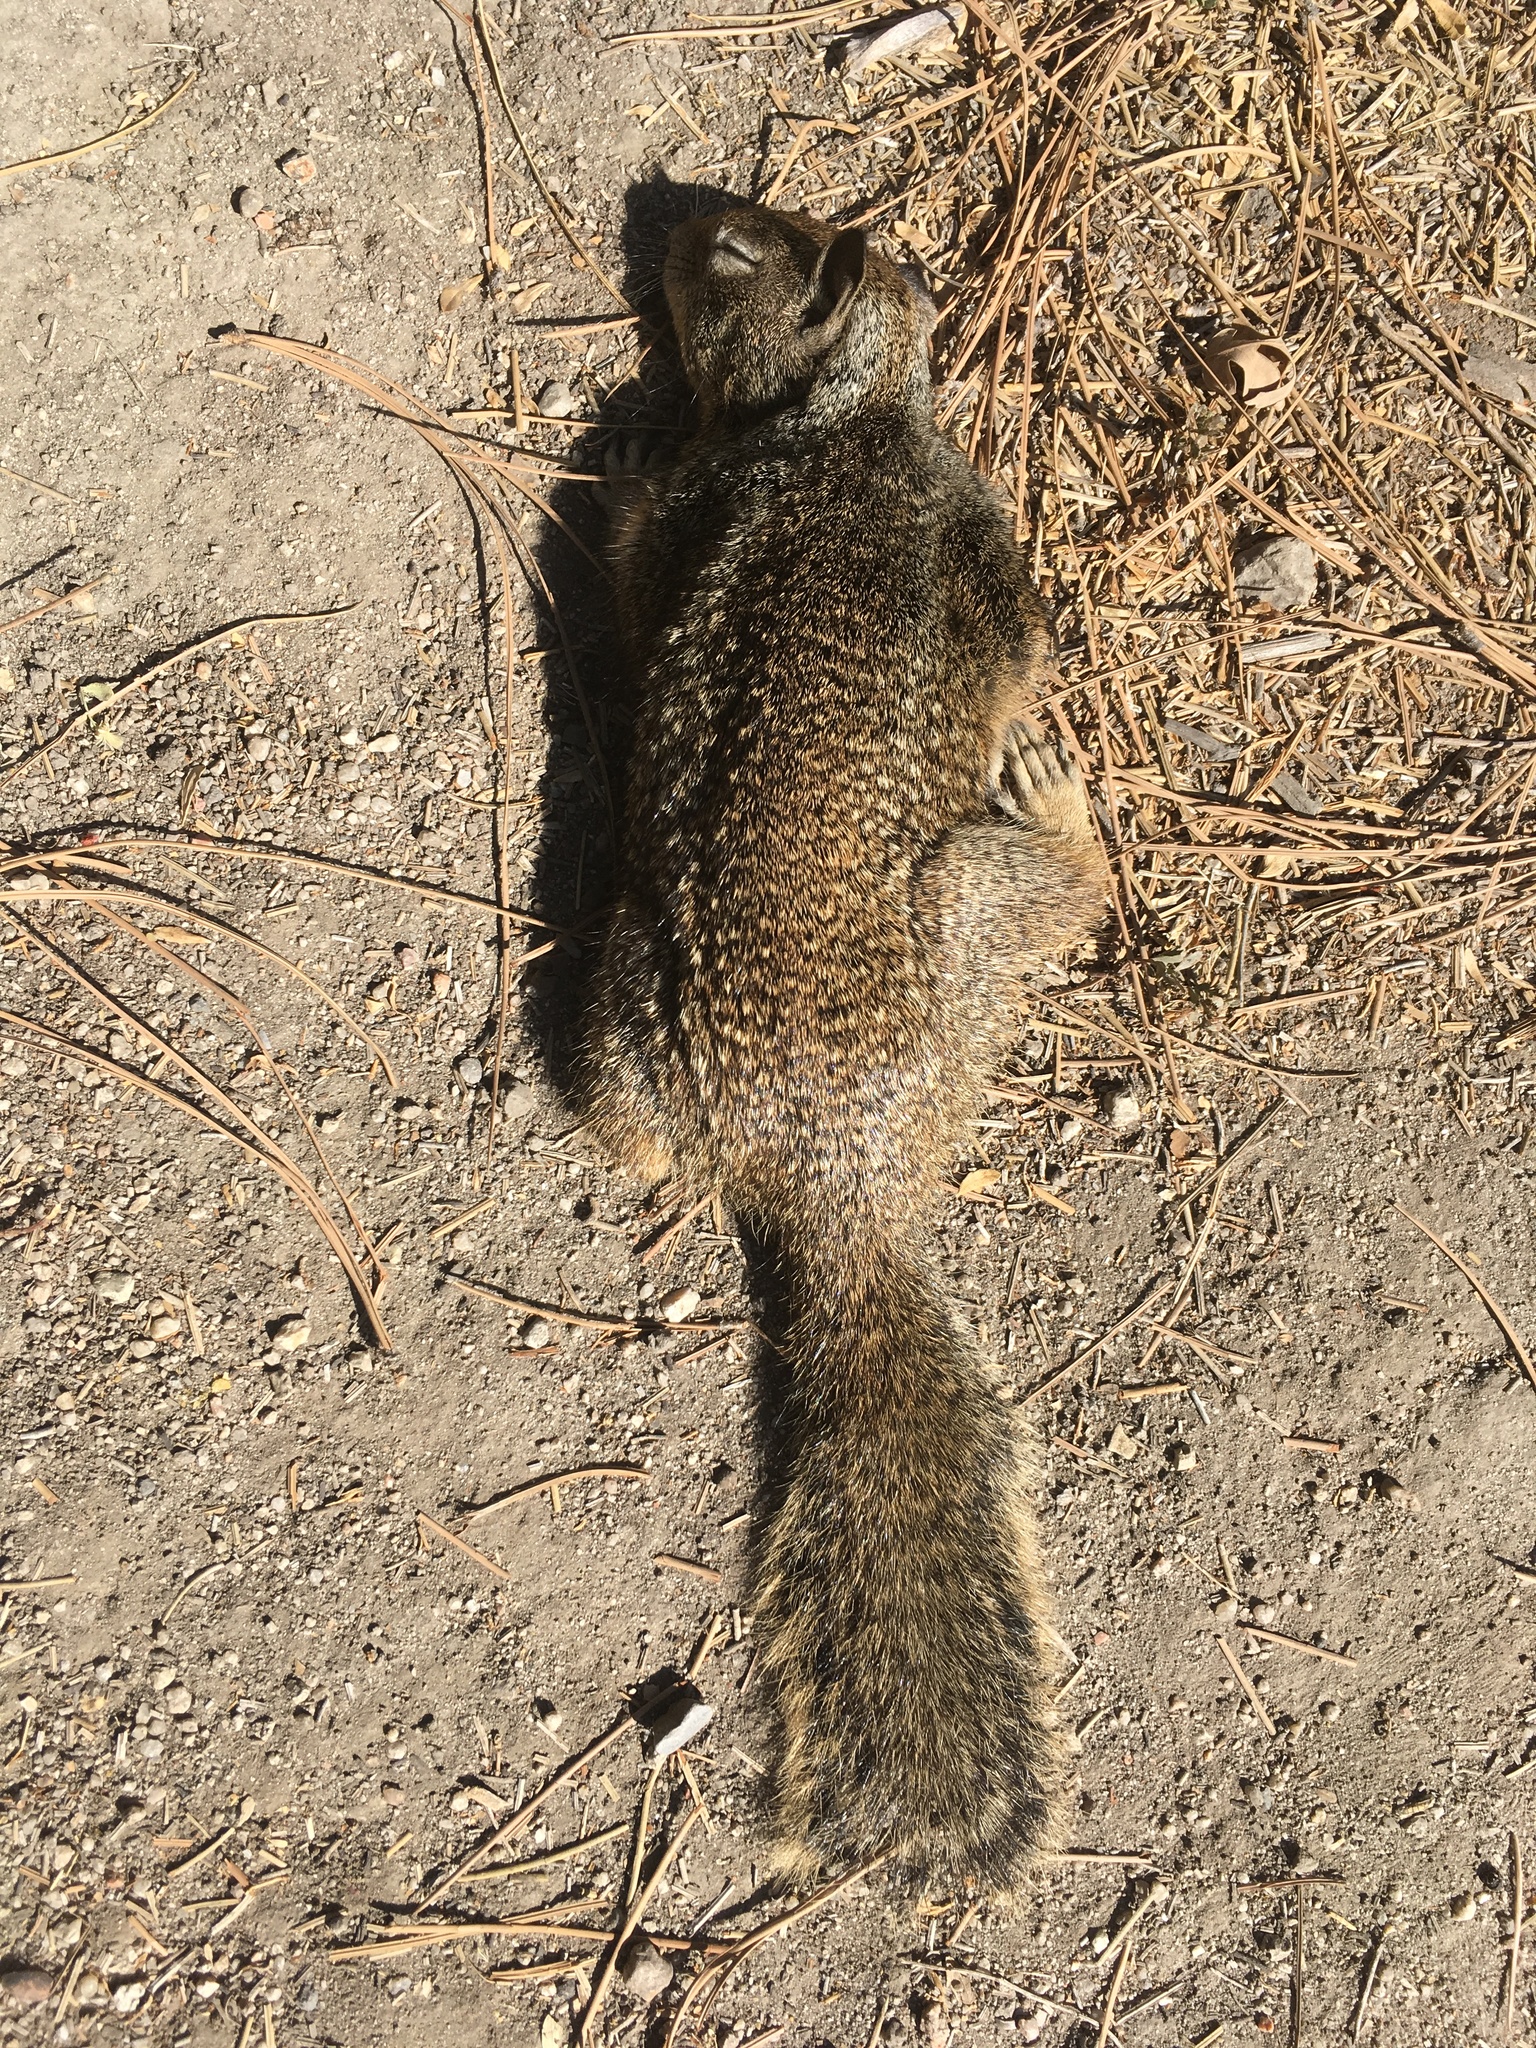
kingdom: Animalia
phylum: Chordata
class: Mammalia
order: Rodentia
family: Sciuridae
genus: Otospermophilus
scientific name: Otospermophilus beecheyi
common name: California ground squirrel
